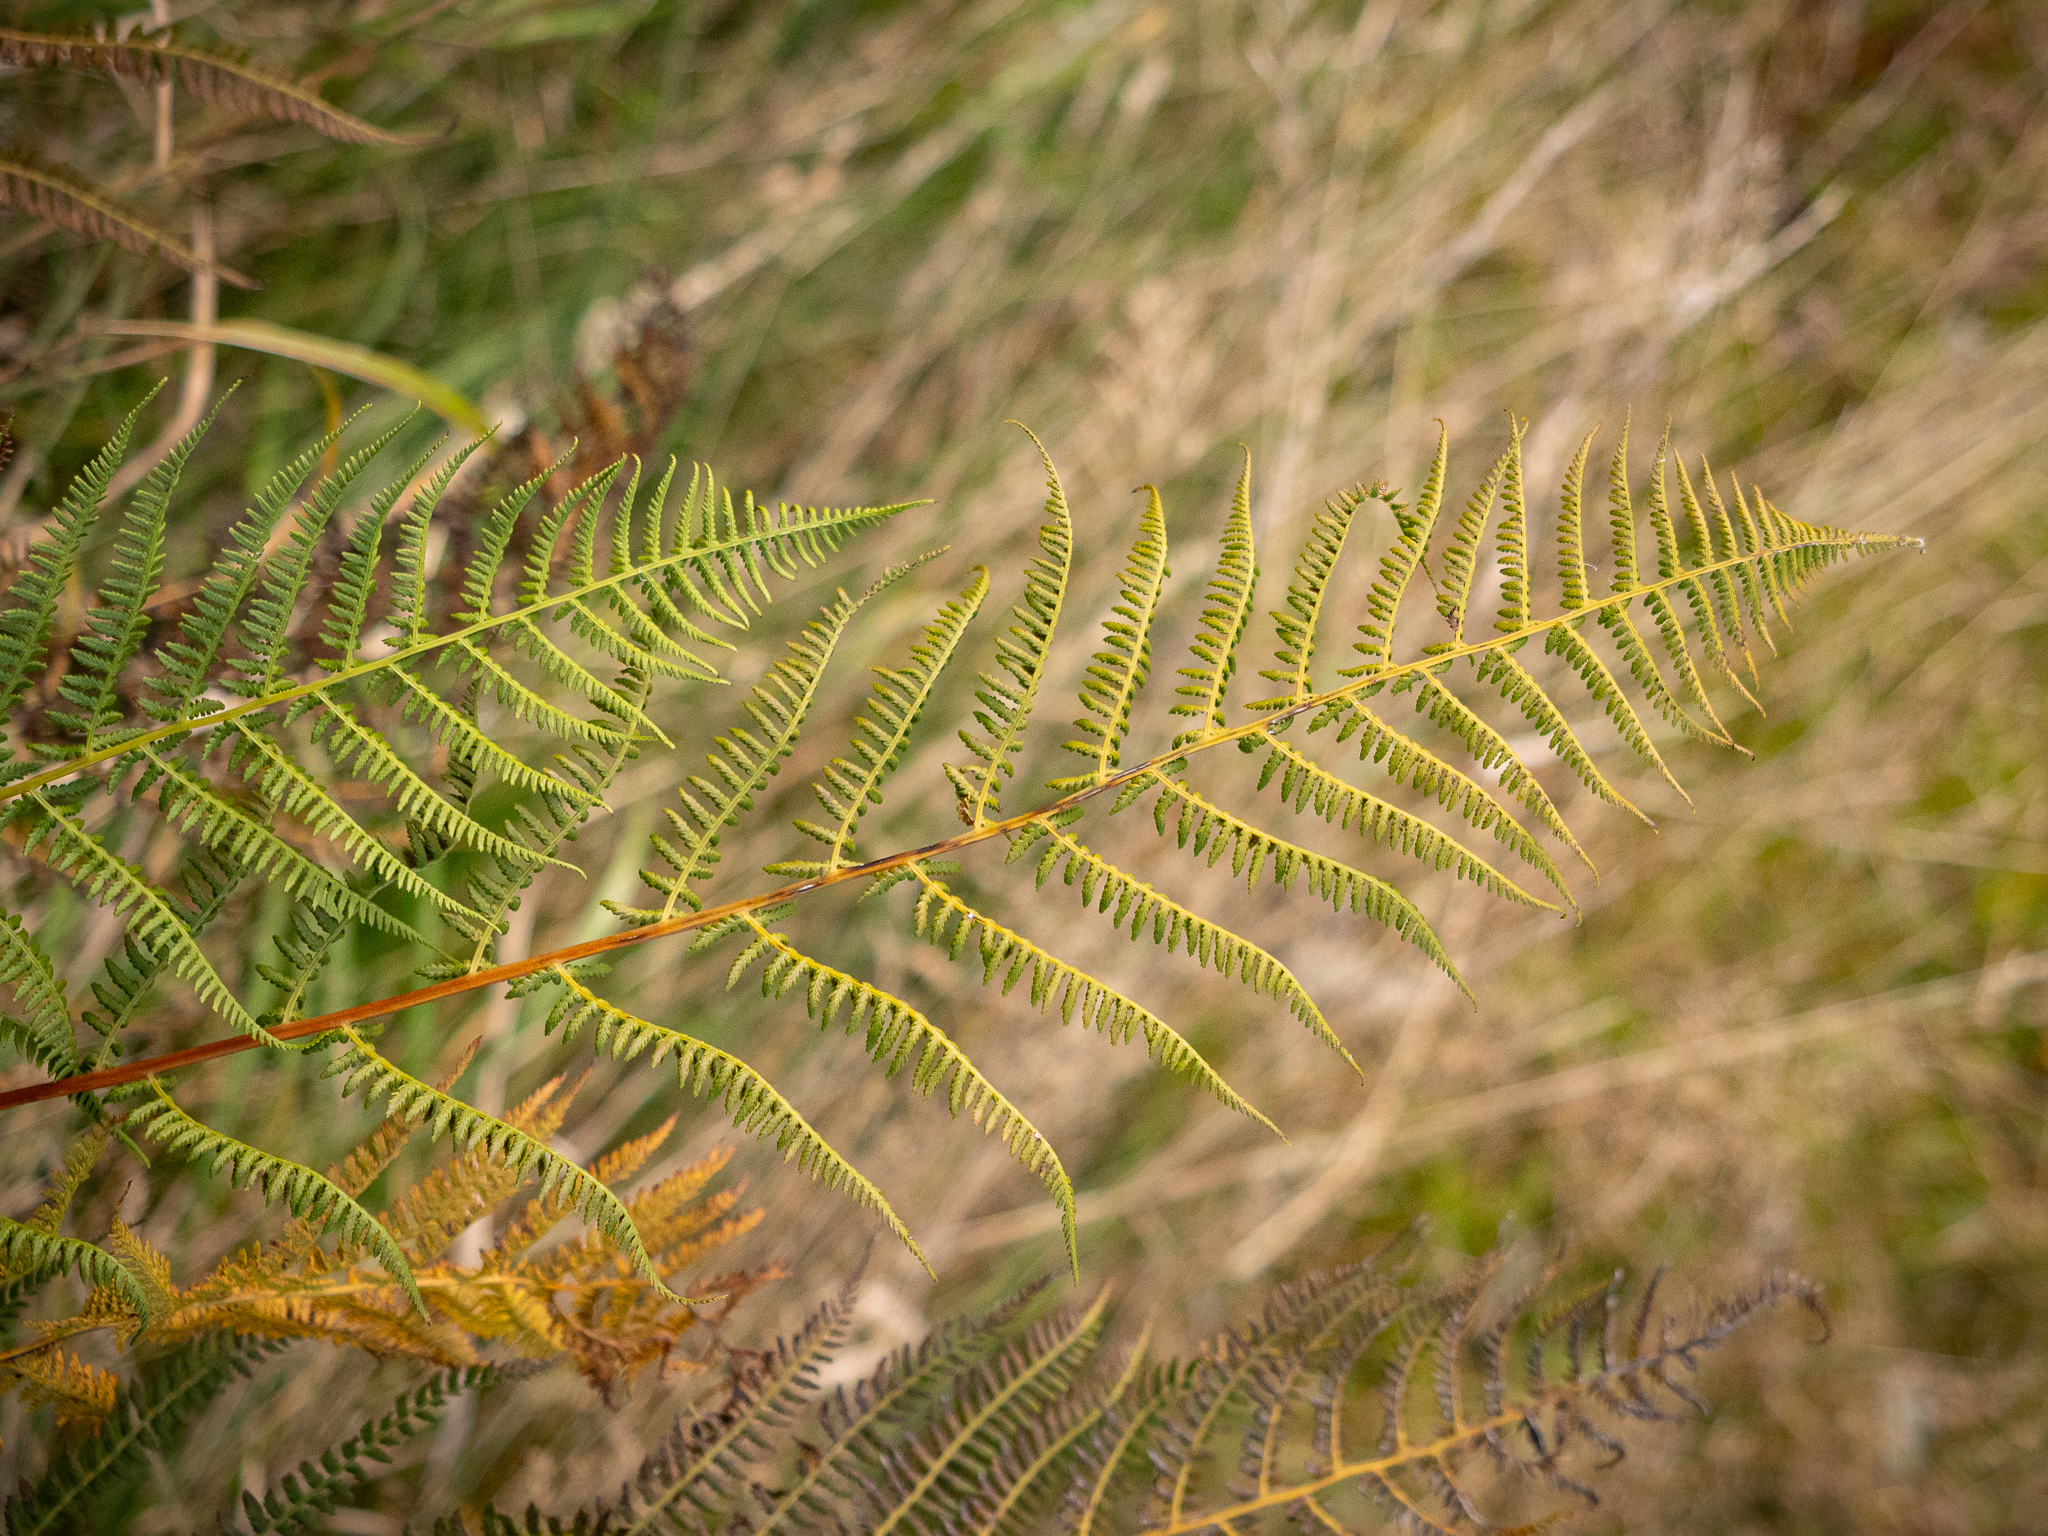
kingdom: Plantae
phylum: Tracheophyta
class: Polypodiopsida
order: Polypodiales
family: Athyriaceae
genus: Athyrium
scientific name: Athyrium filix-femina
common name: Lady fern
